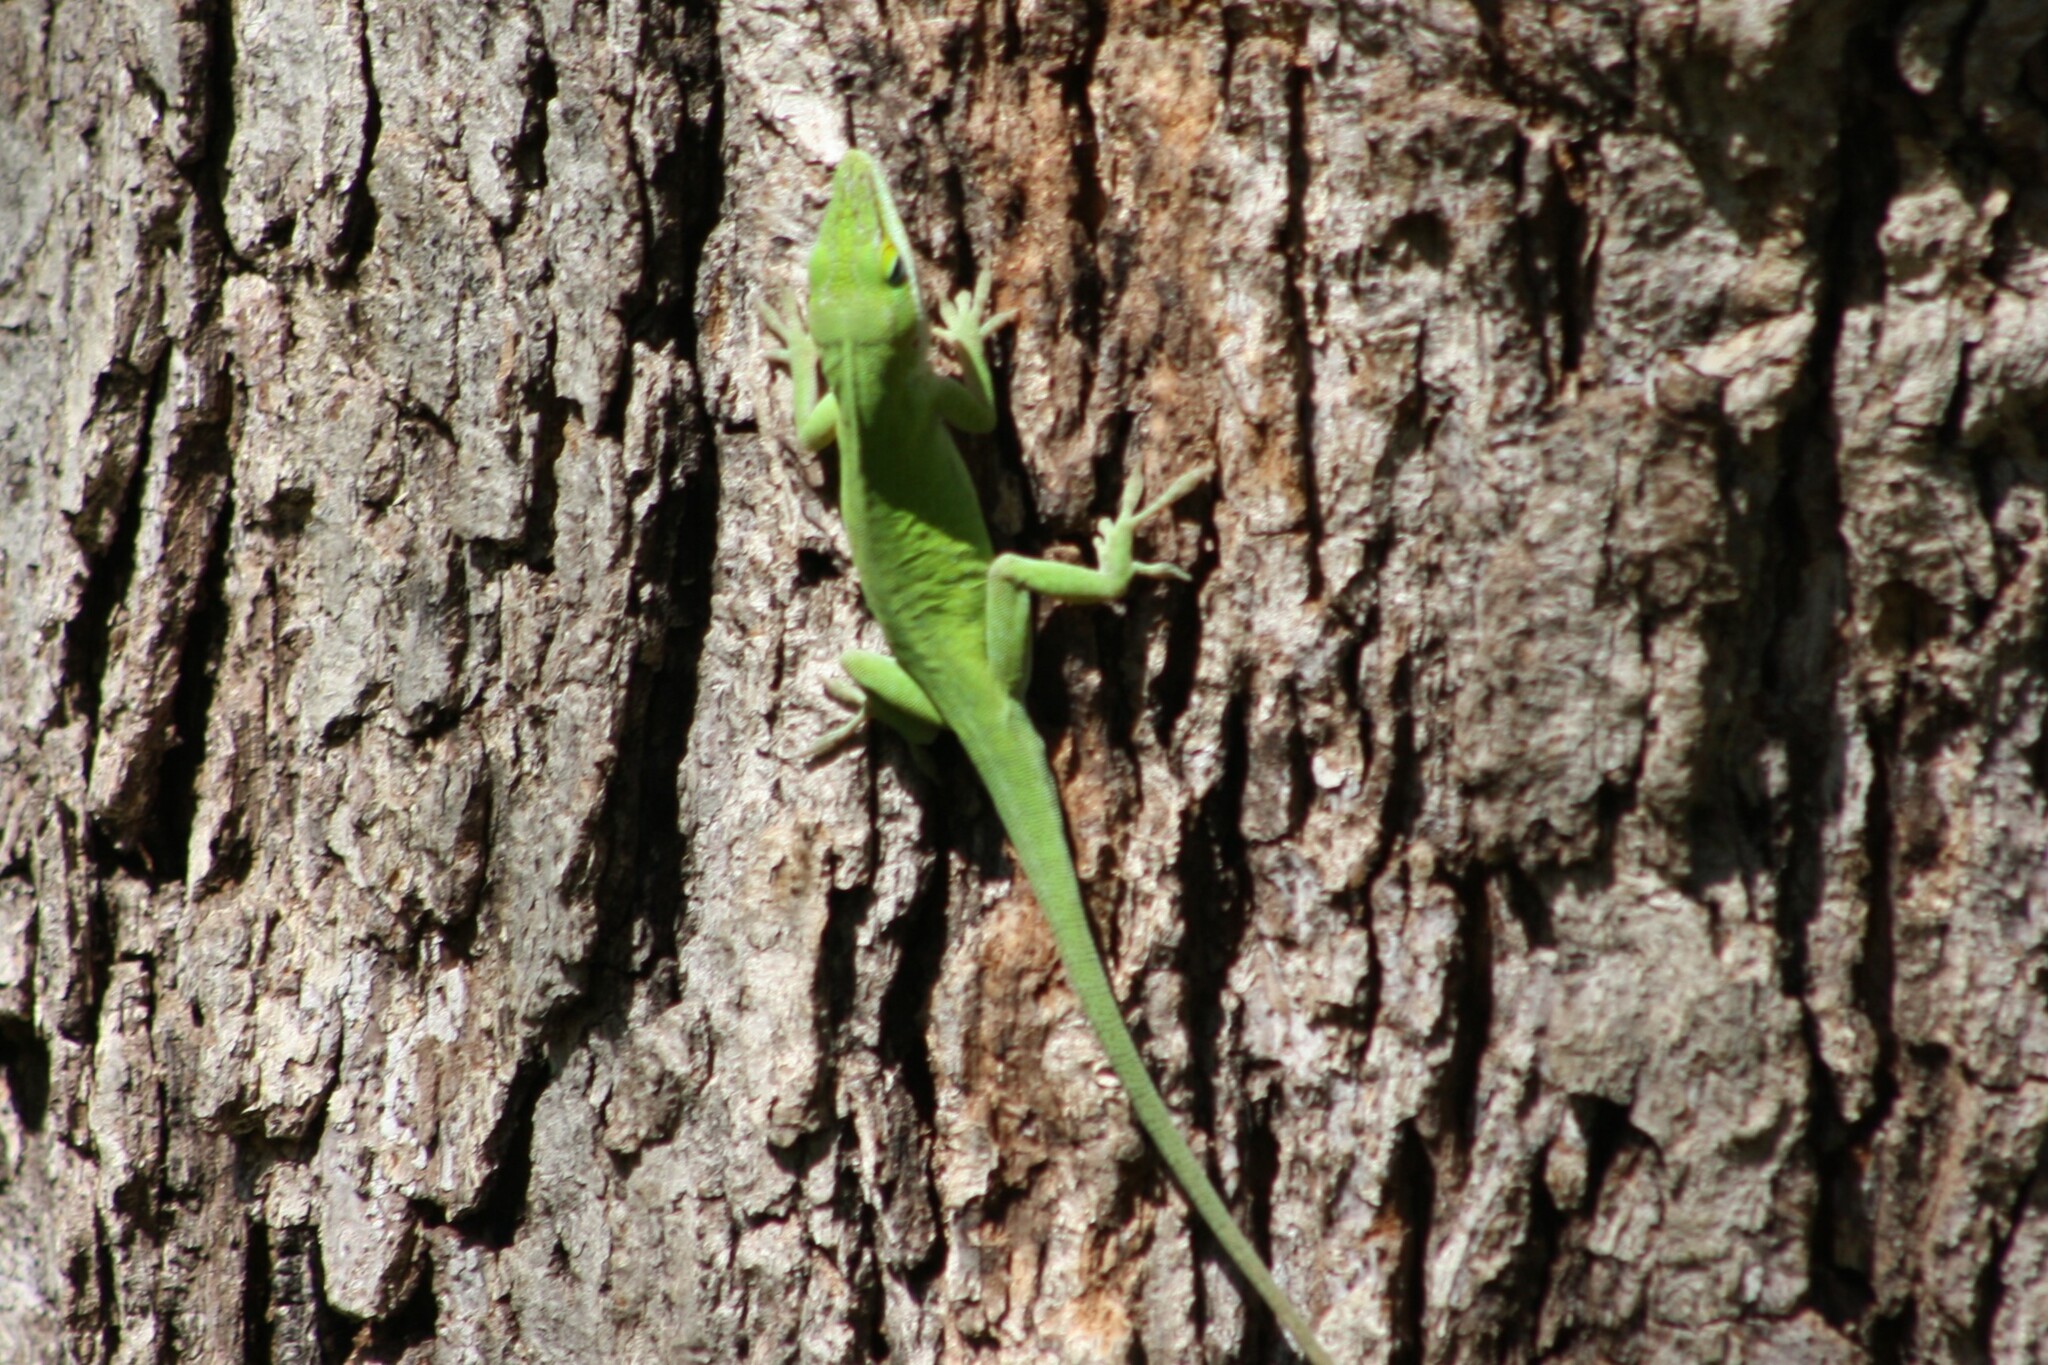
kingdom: Animalia
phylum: Chordata
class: Squamata
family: Dactyloidae
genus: Anolis
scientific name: Anolis carolinensis
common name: Green anole
